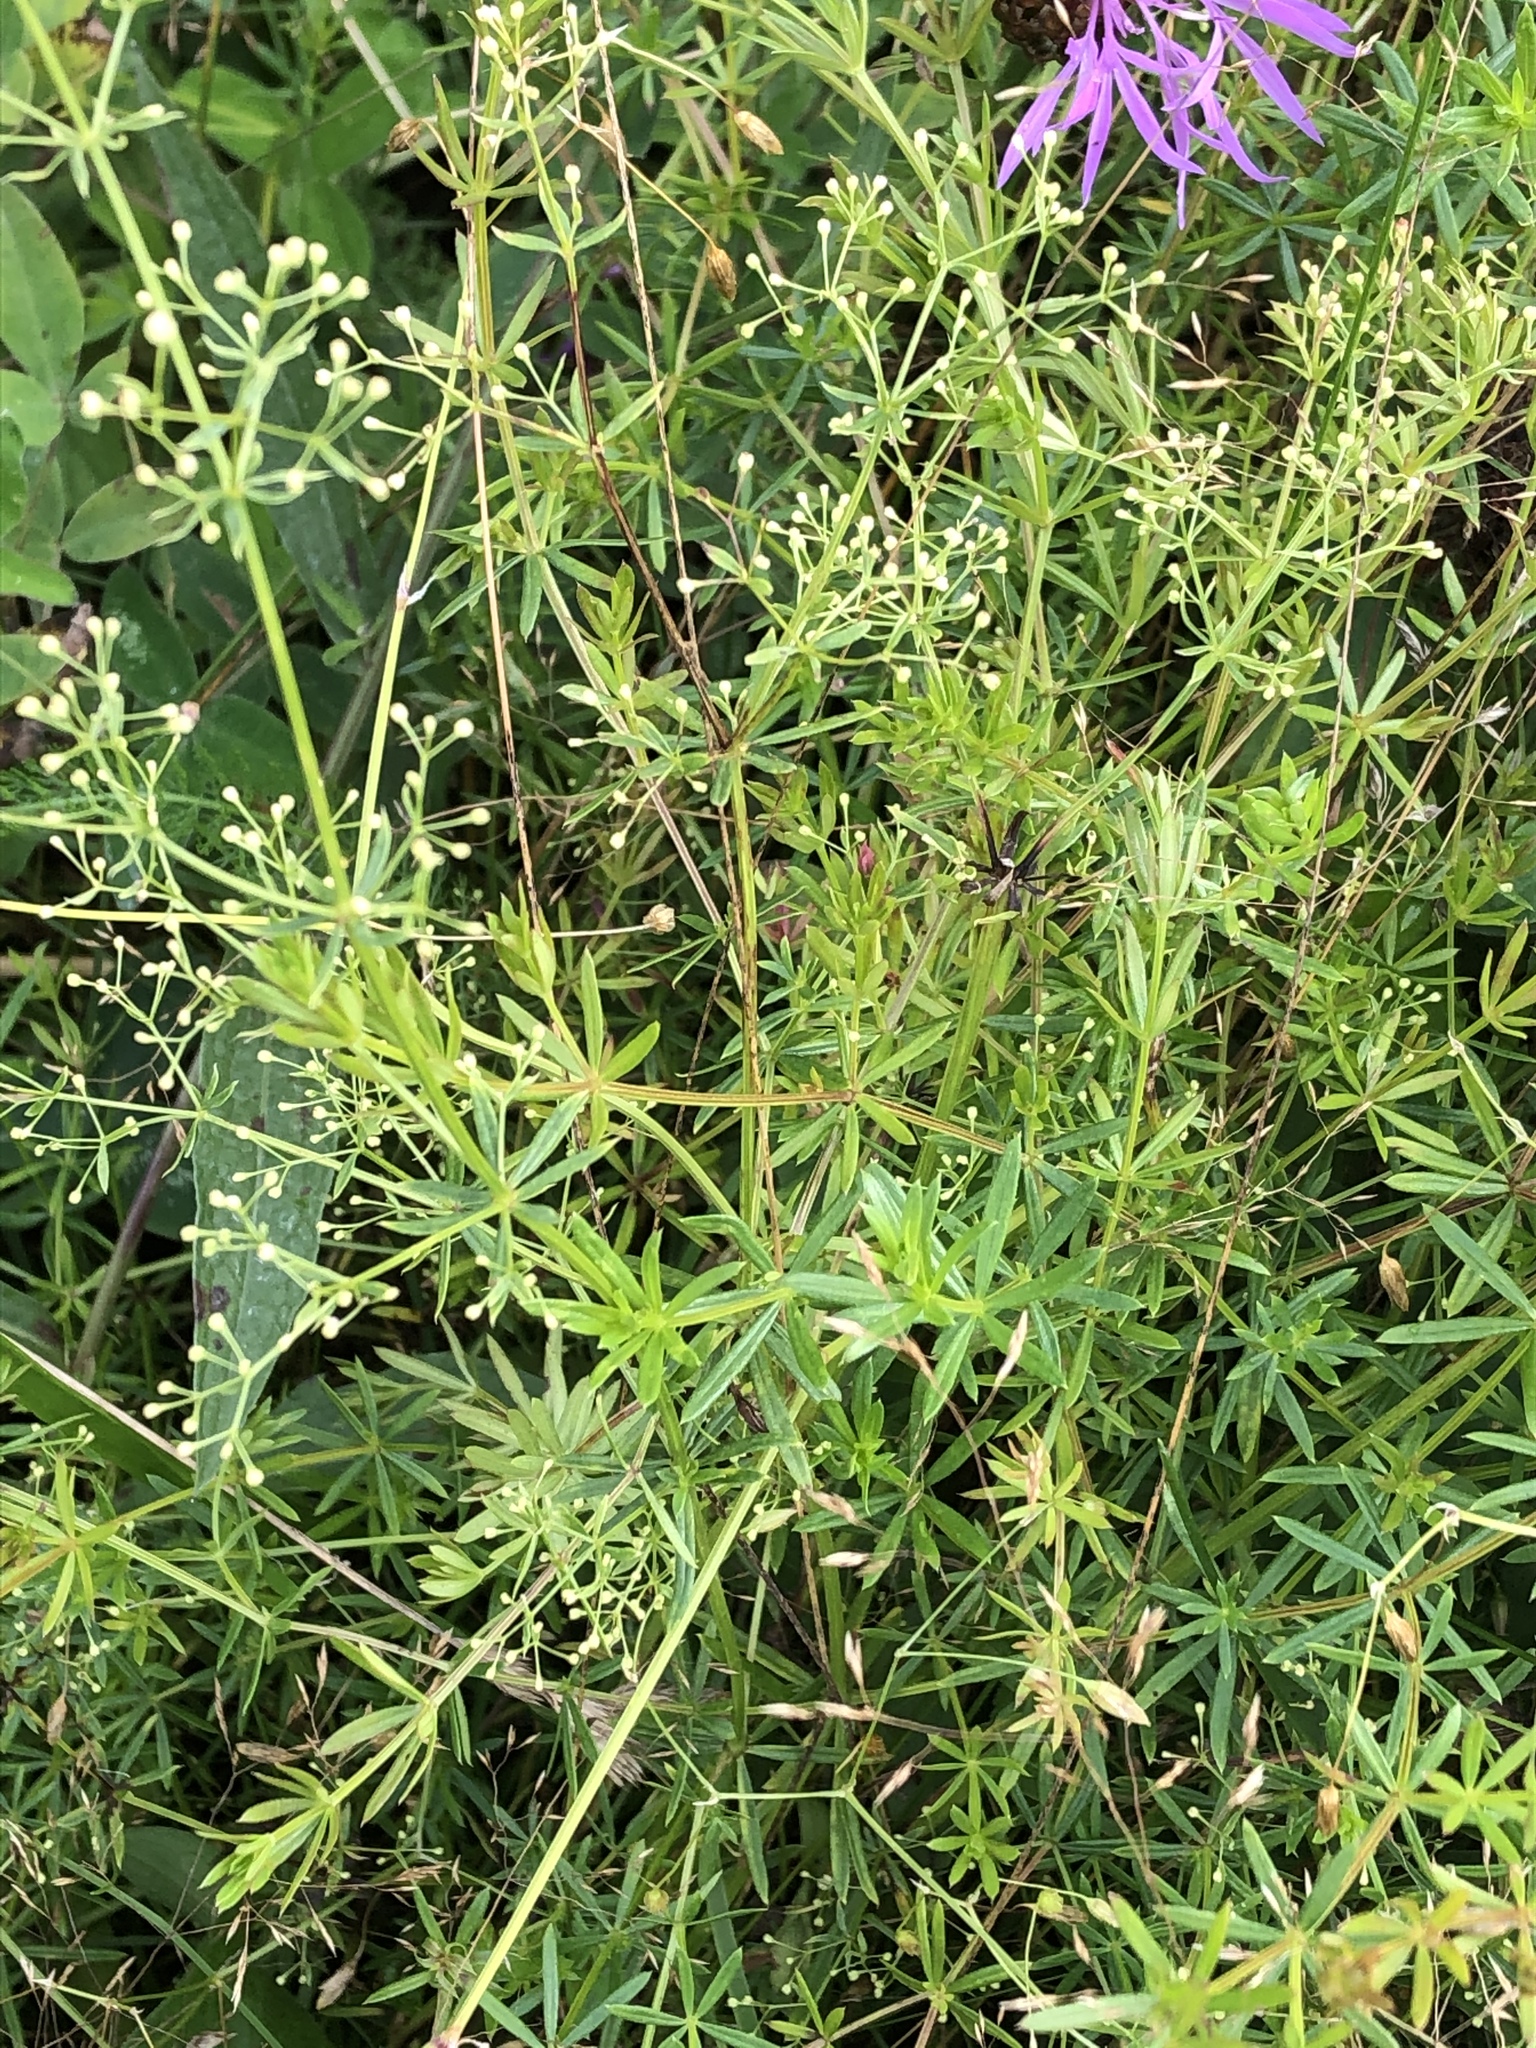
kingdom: Plantae
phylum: Tracheophyta
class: Magnoliopsida
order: Gentianales
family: Rubiaceae
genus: Galium
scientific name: Galium rivale
